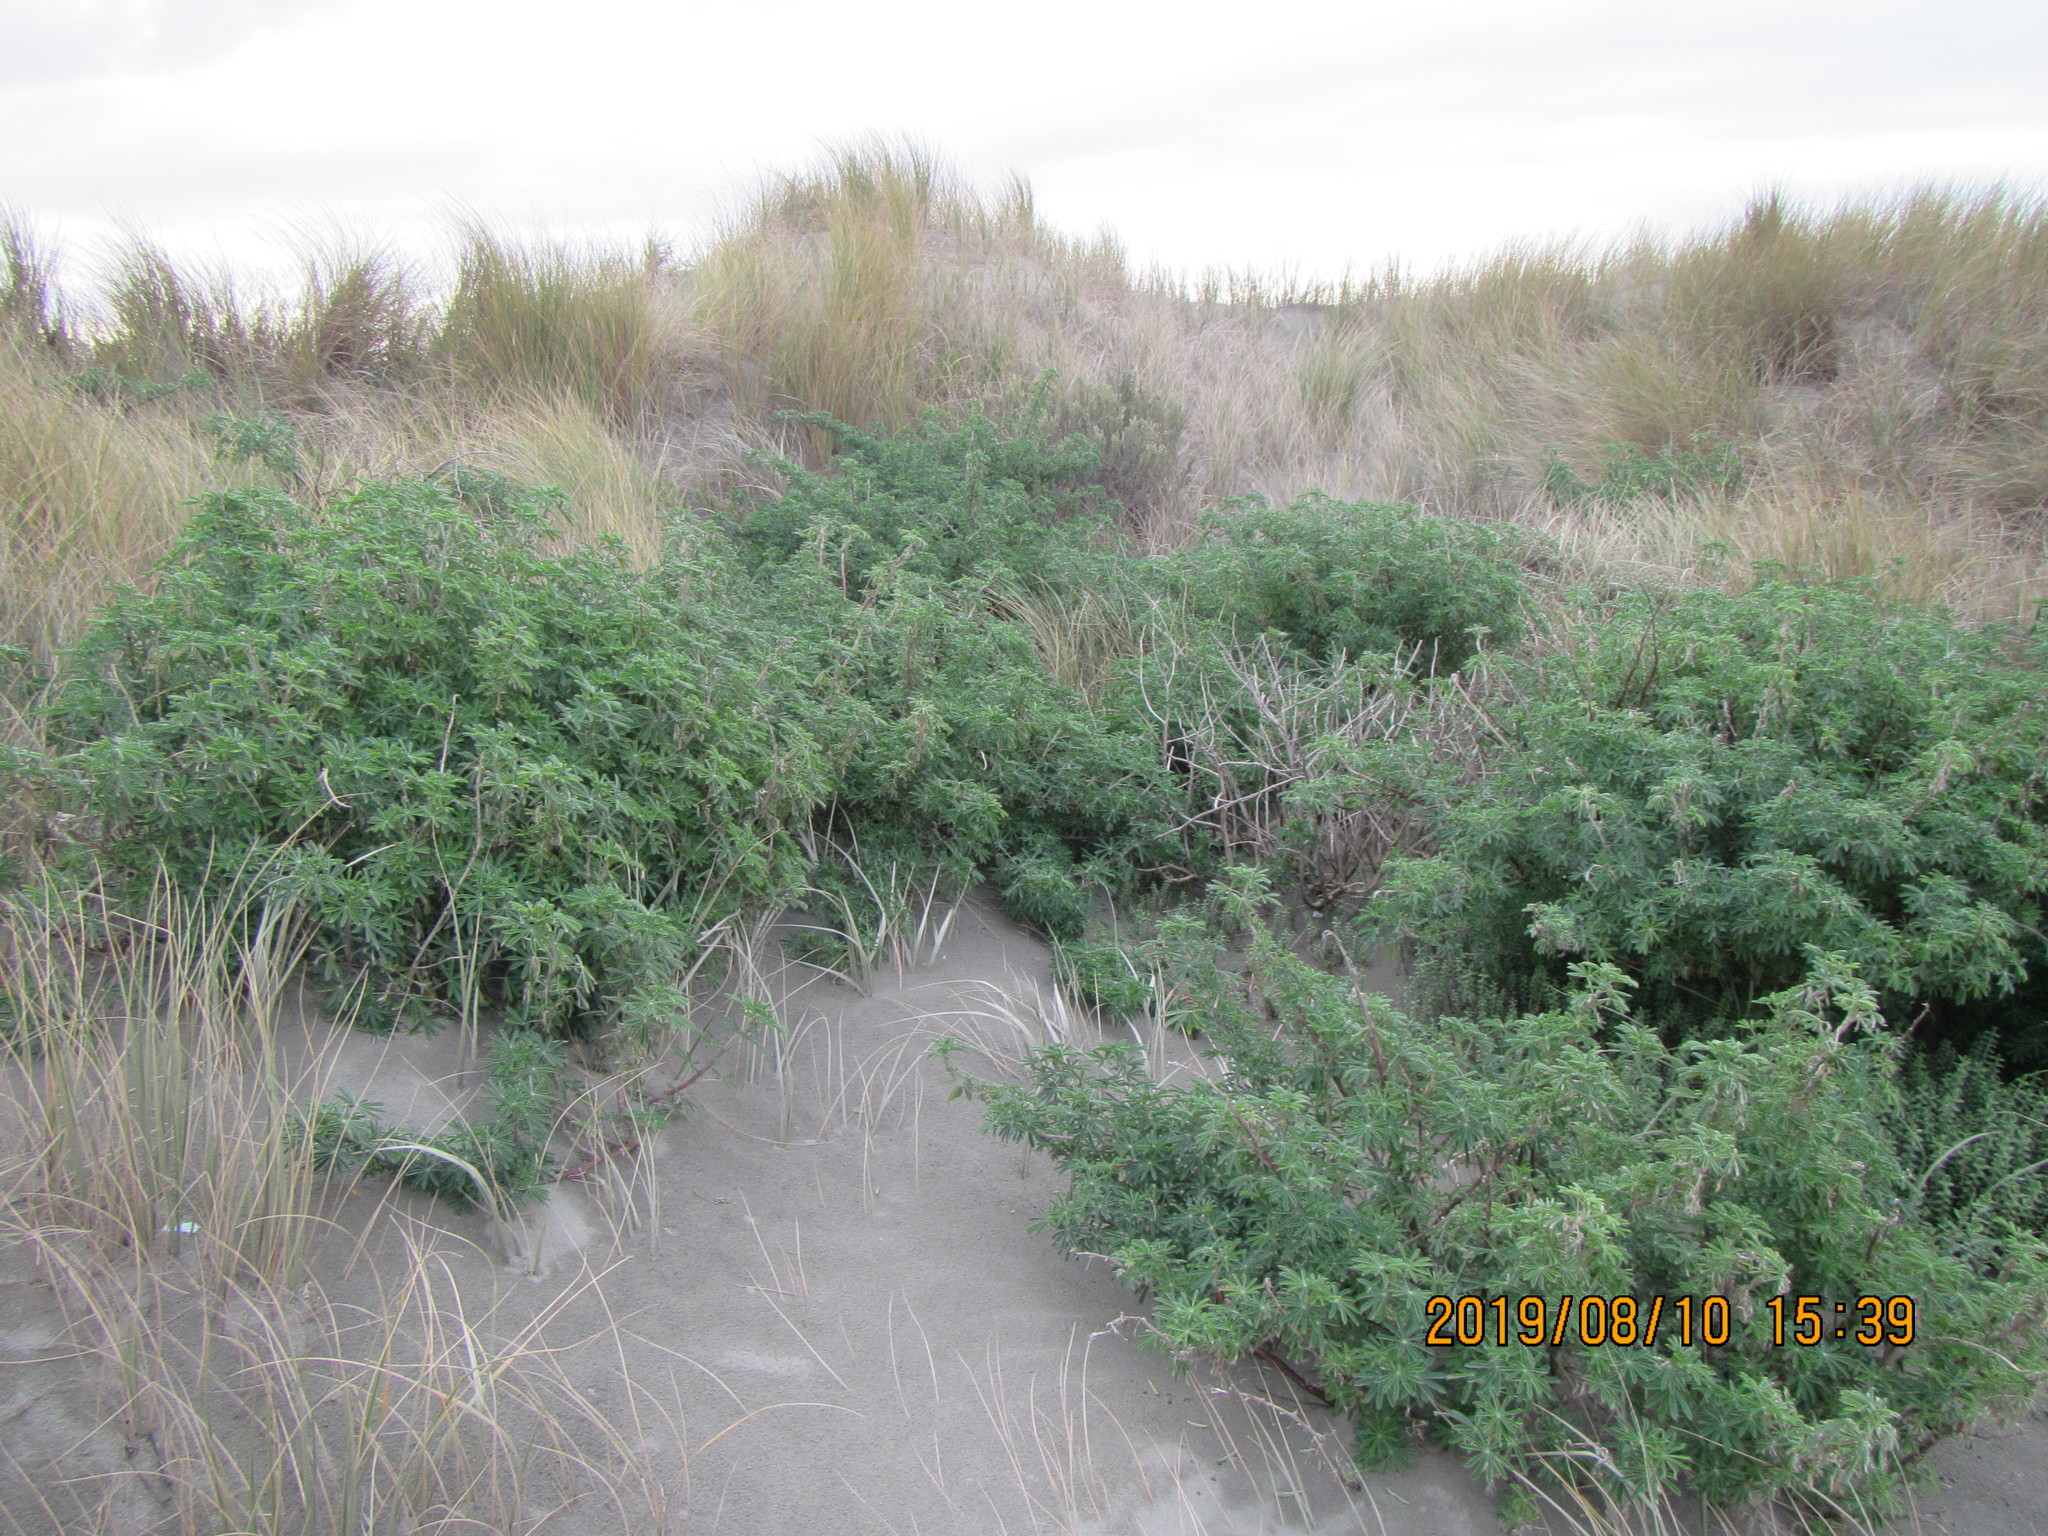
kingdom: Plantae
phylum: Tracheophyta
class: Magnoliopsida
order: Fabales
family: Fabaceae
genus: Lupinus
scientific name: Lupinus arboreus
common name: Yellow bush lupine
